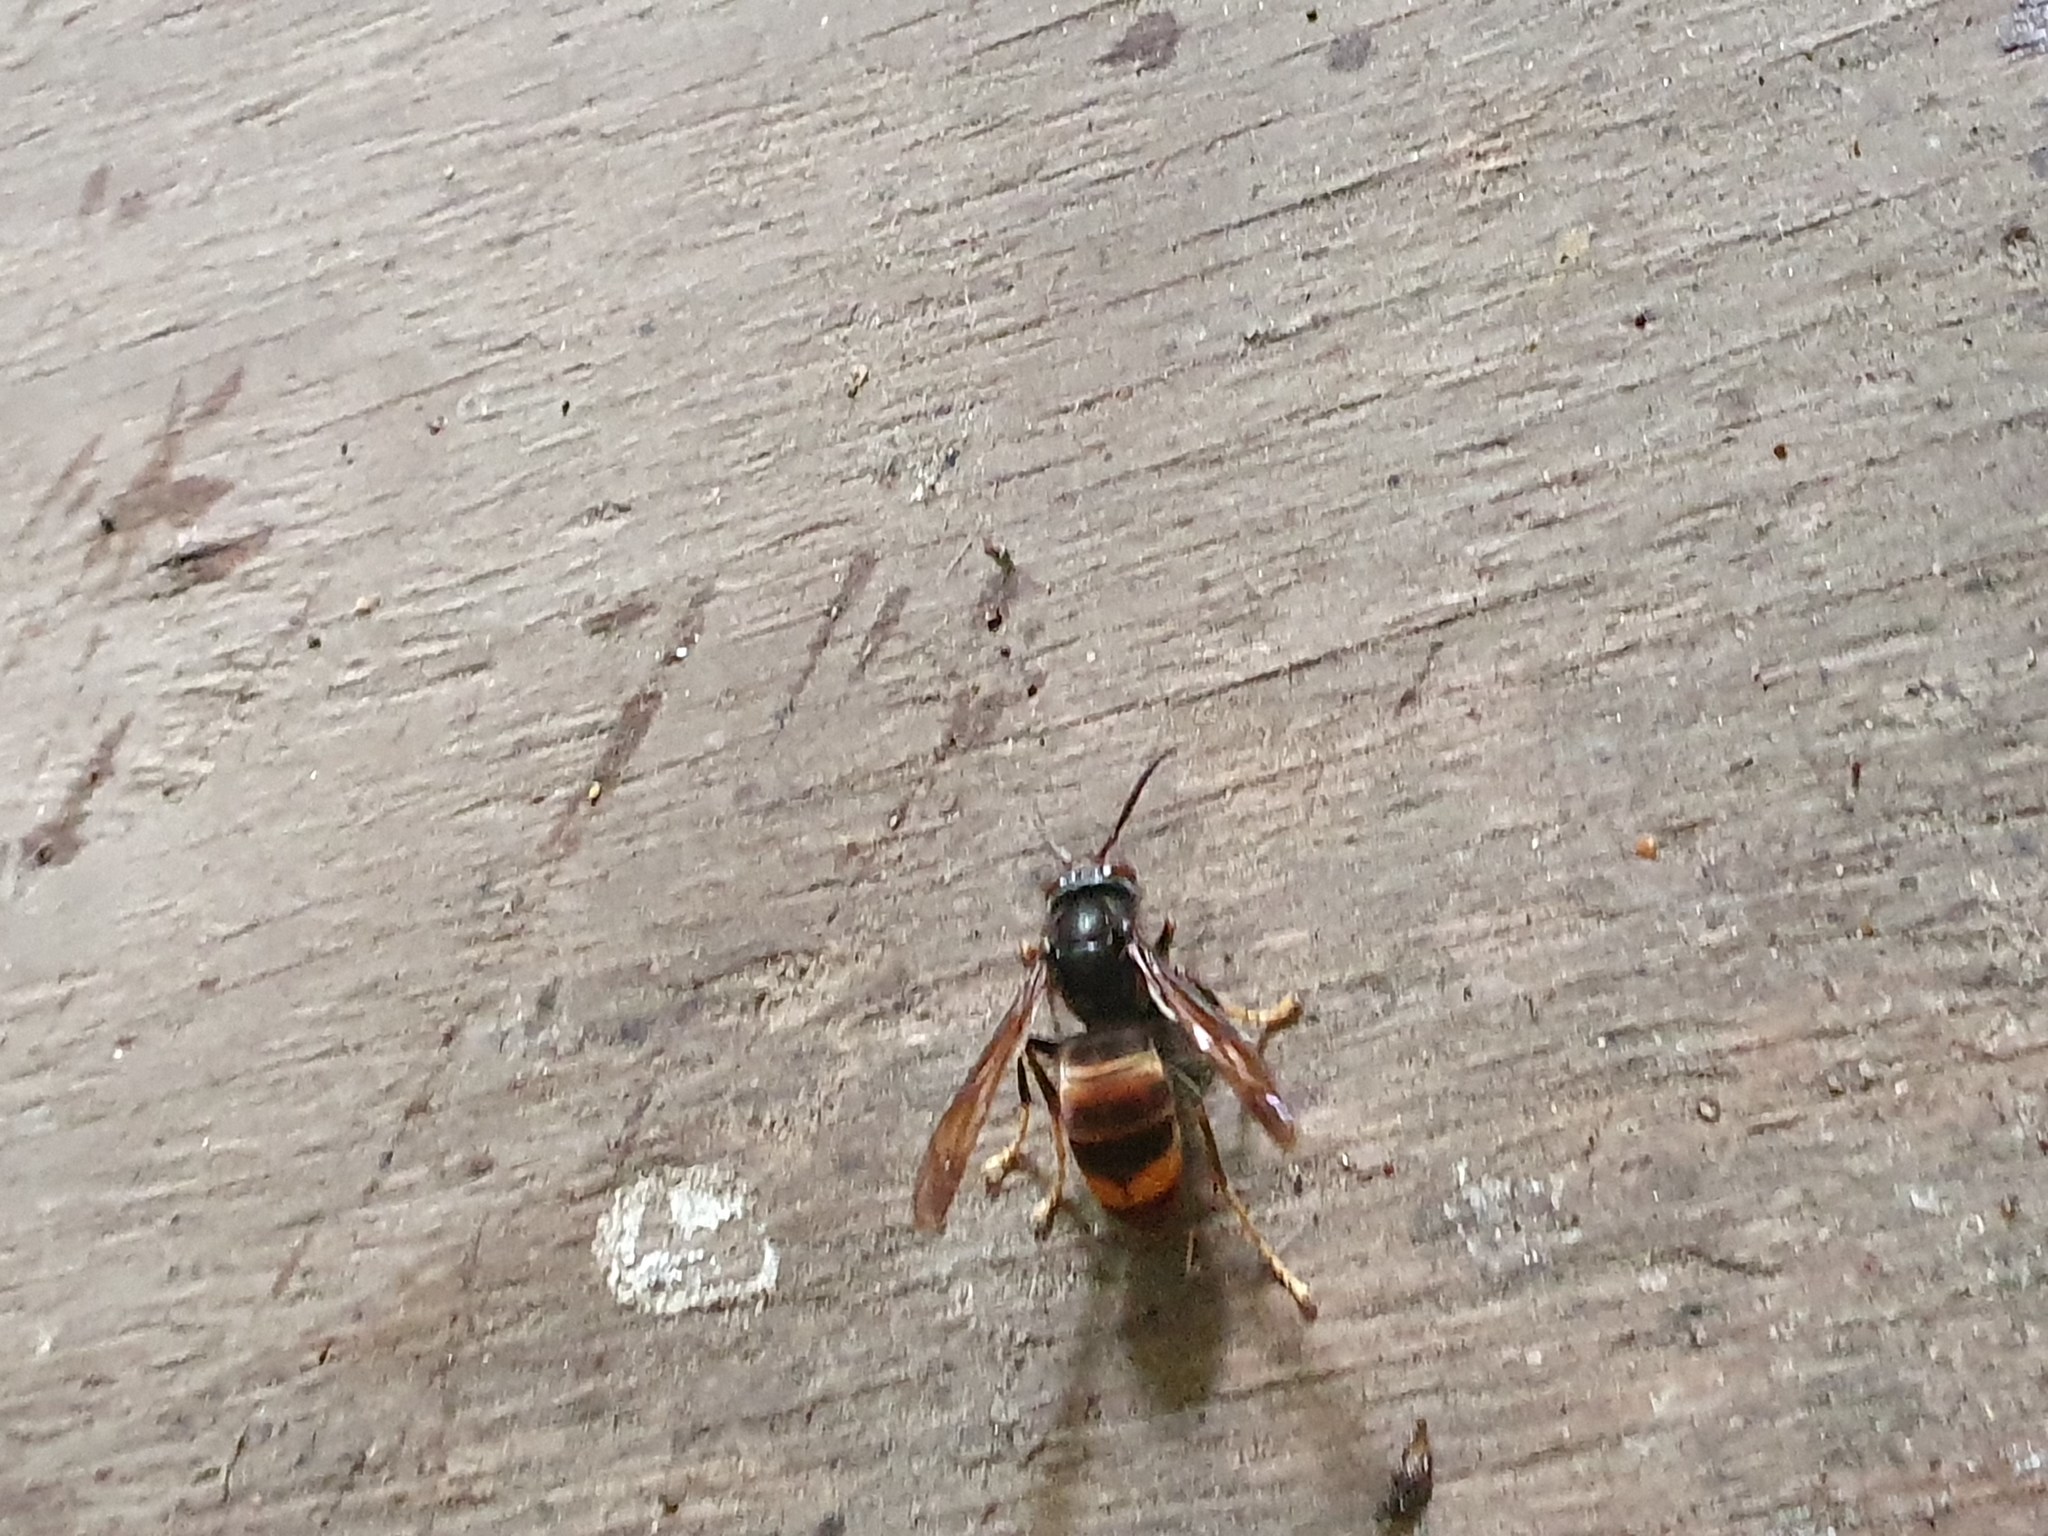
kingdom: Animalia
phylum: Arthropoda
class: Insecta
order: Hymenoptera
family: Vespidae
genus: Vespa
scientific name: Vespa velutina
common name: Asian hornet
